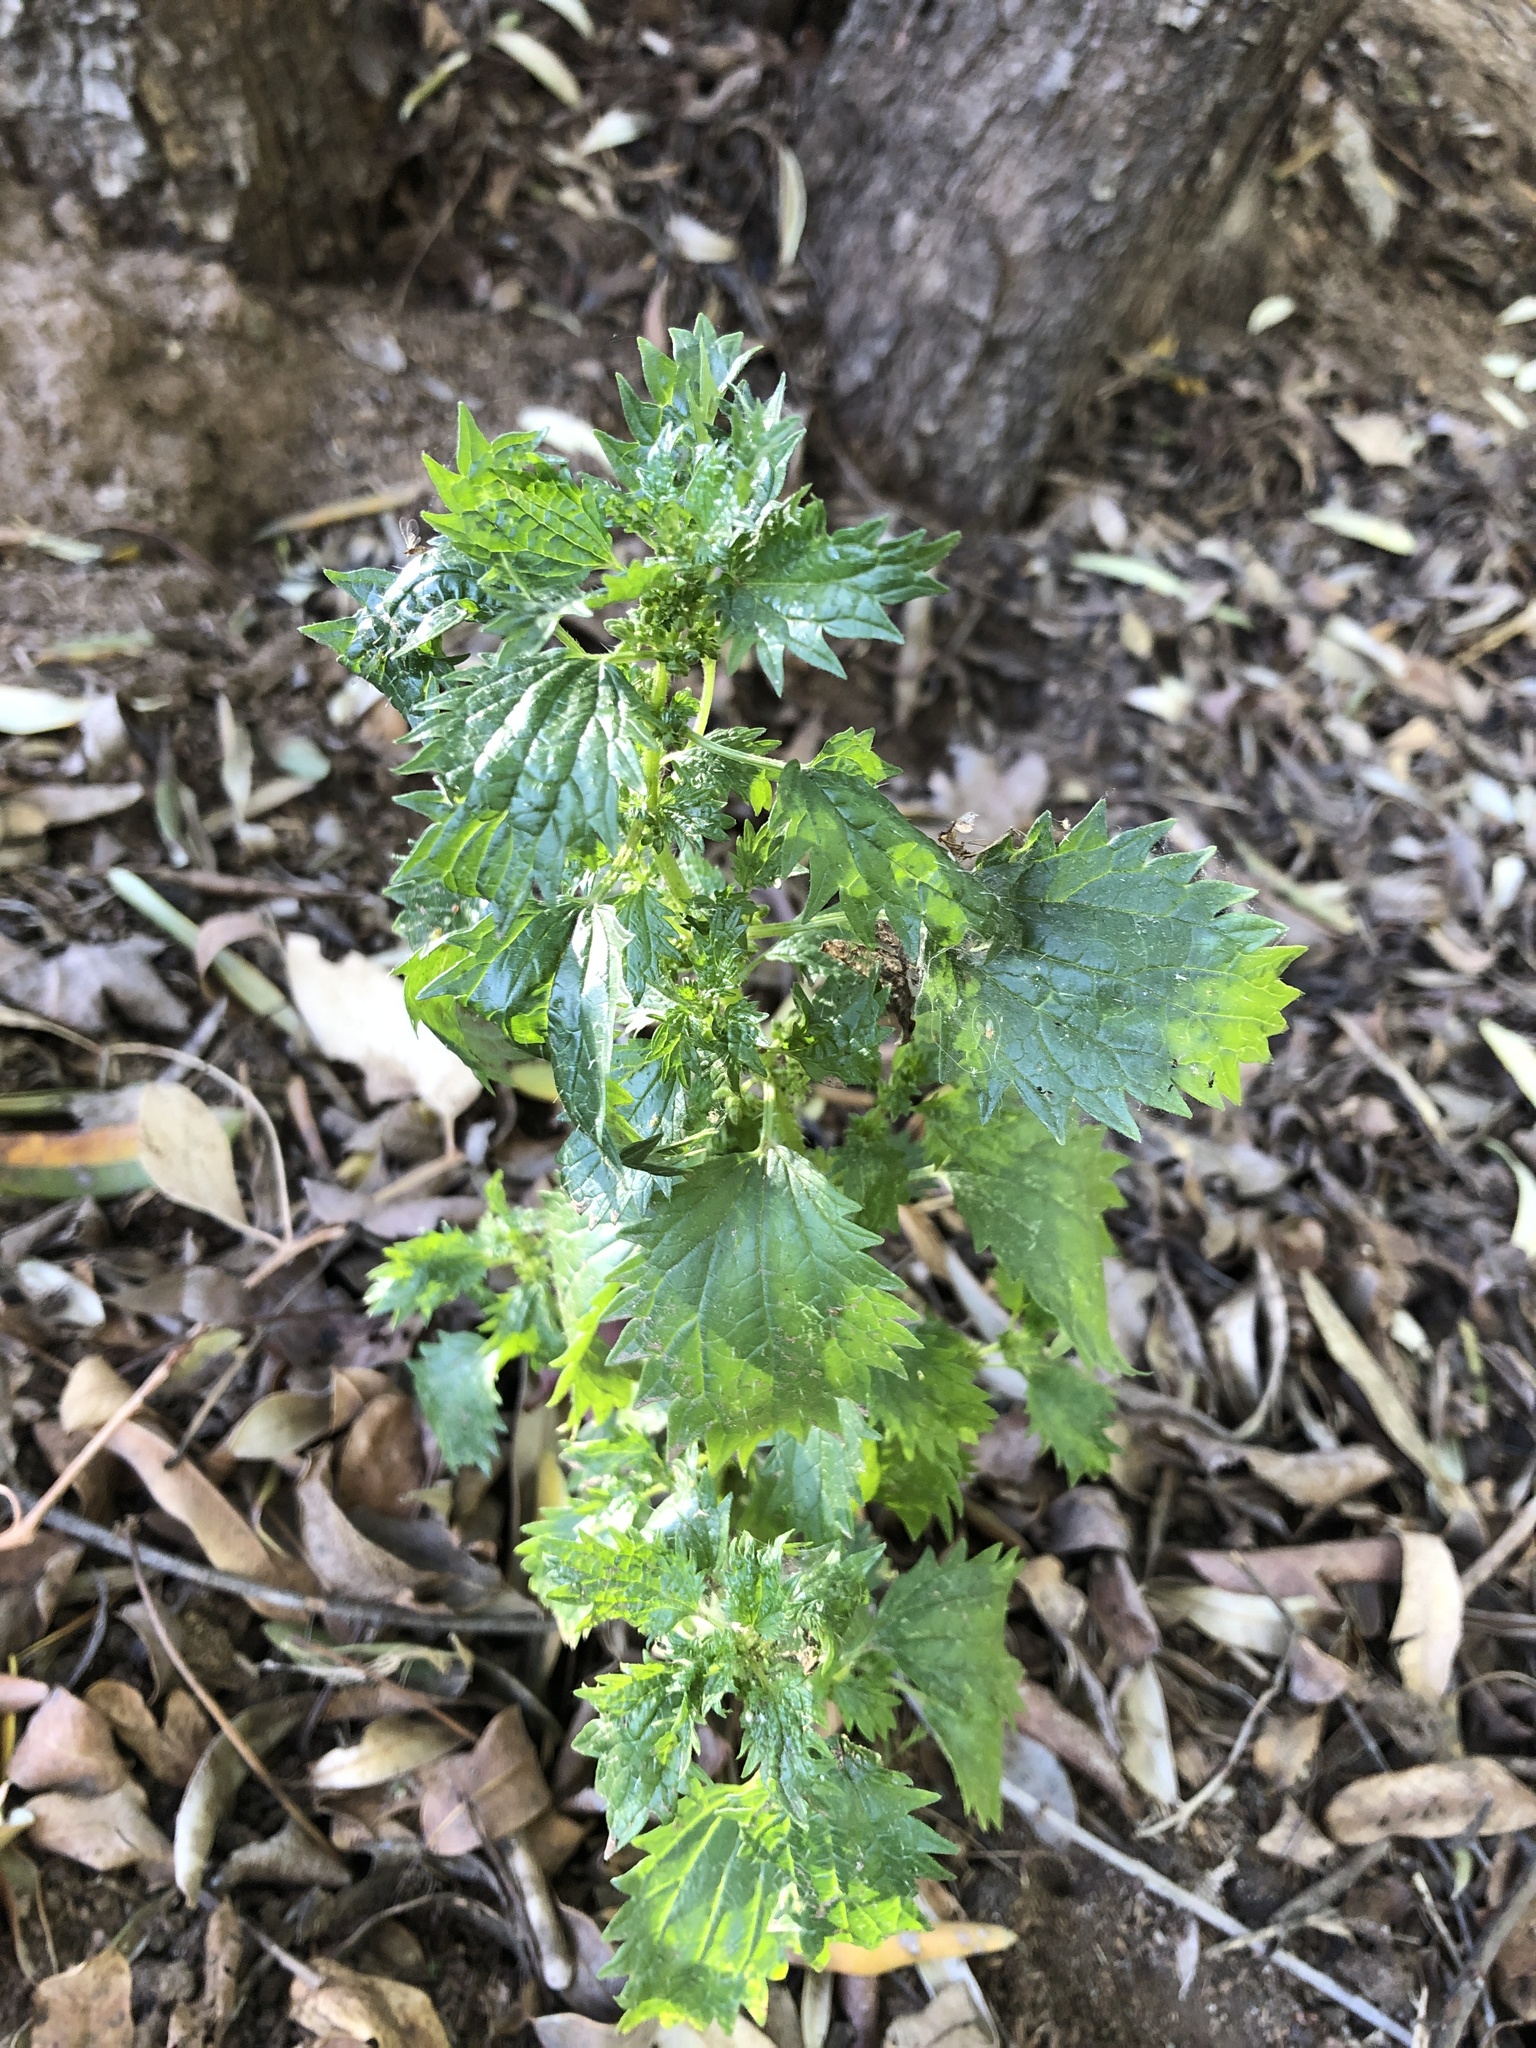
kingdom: Plantae
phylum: Tracheophyta
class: Magnoliopsida
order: Rosales
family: Urticaceae
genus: Urtica
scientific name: Urtica urens
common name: Dwarf nettle
